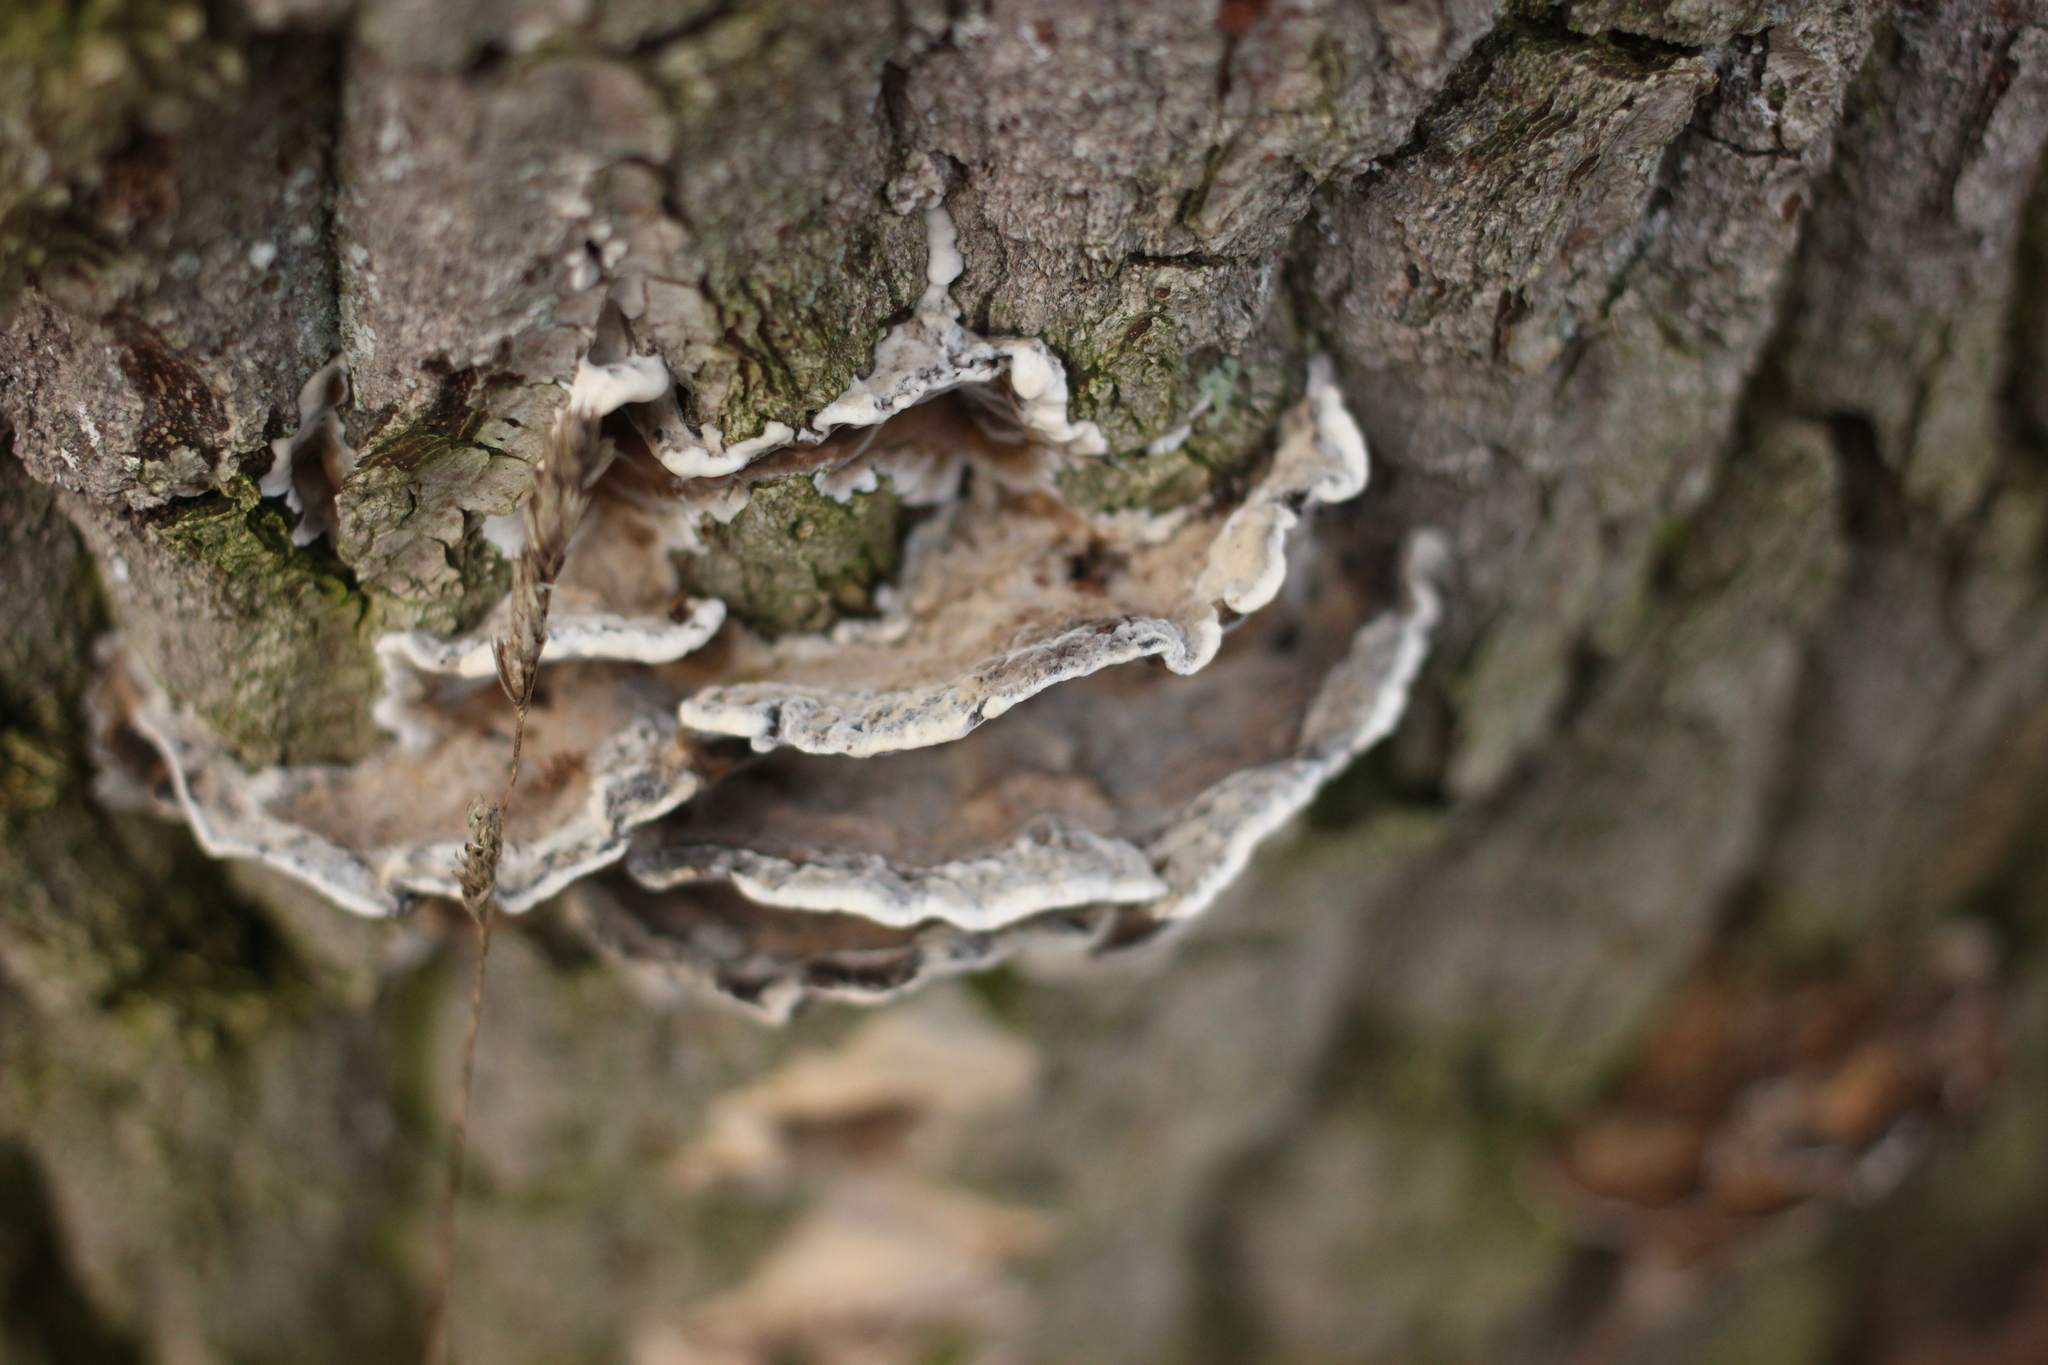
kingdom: Fungi
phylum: Basidiomycota
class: Agaricomycetes
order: Polyporales
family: Phanerochaetaceae
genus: Bjerkandera
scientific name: Bjerkandera adusta
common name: Smoky bracket
